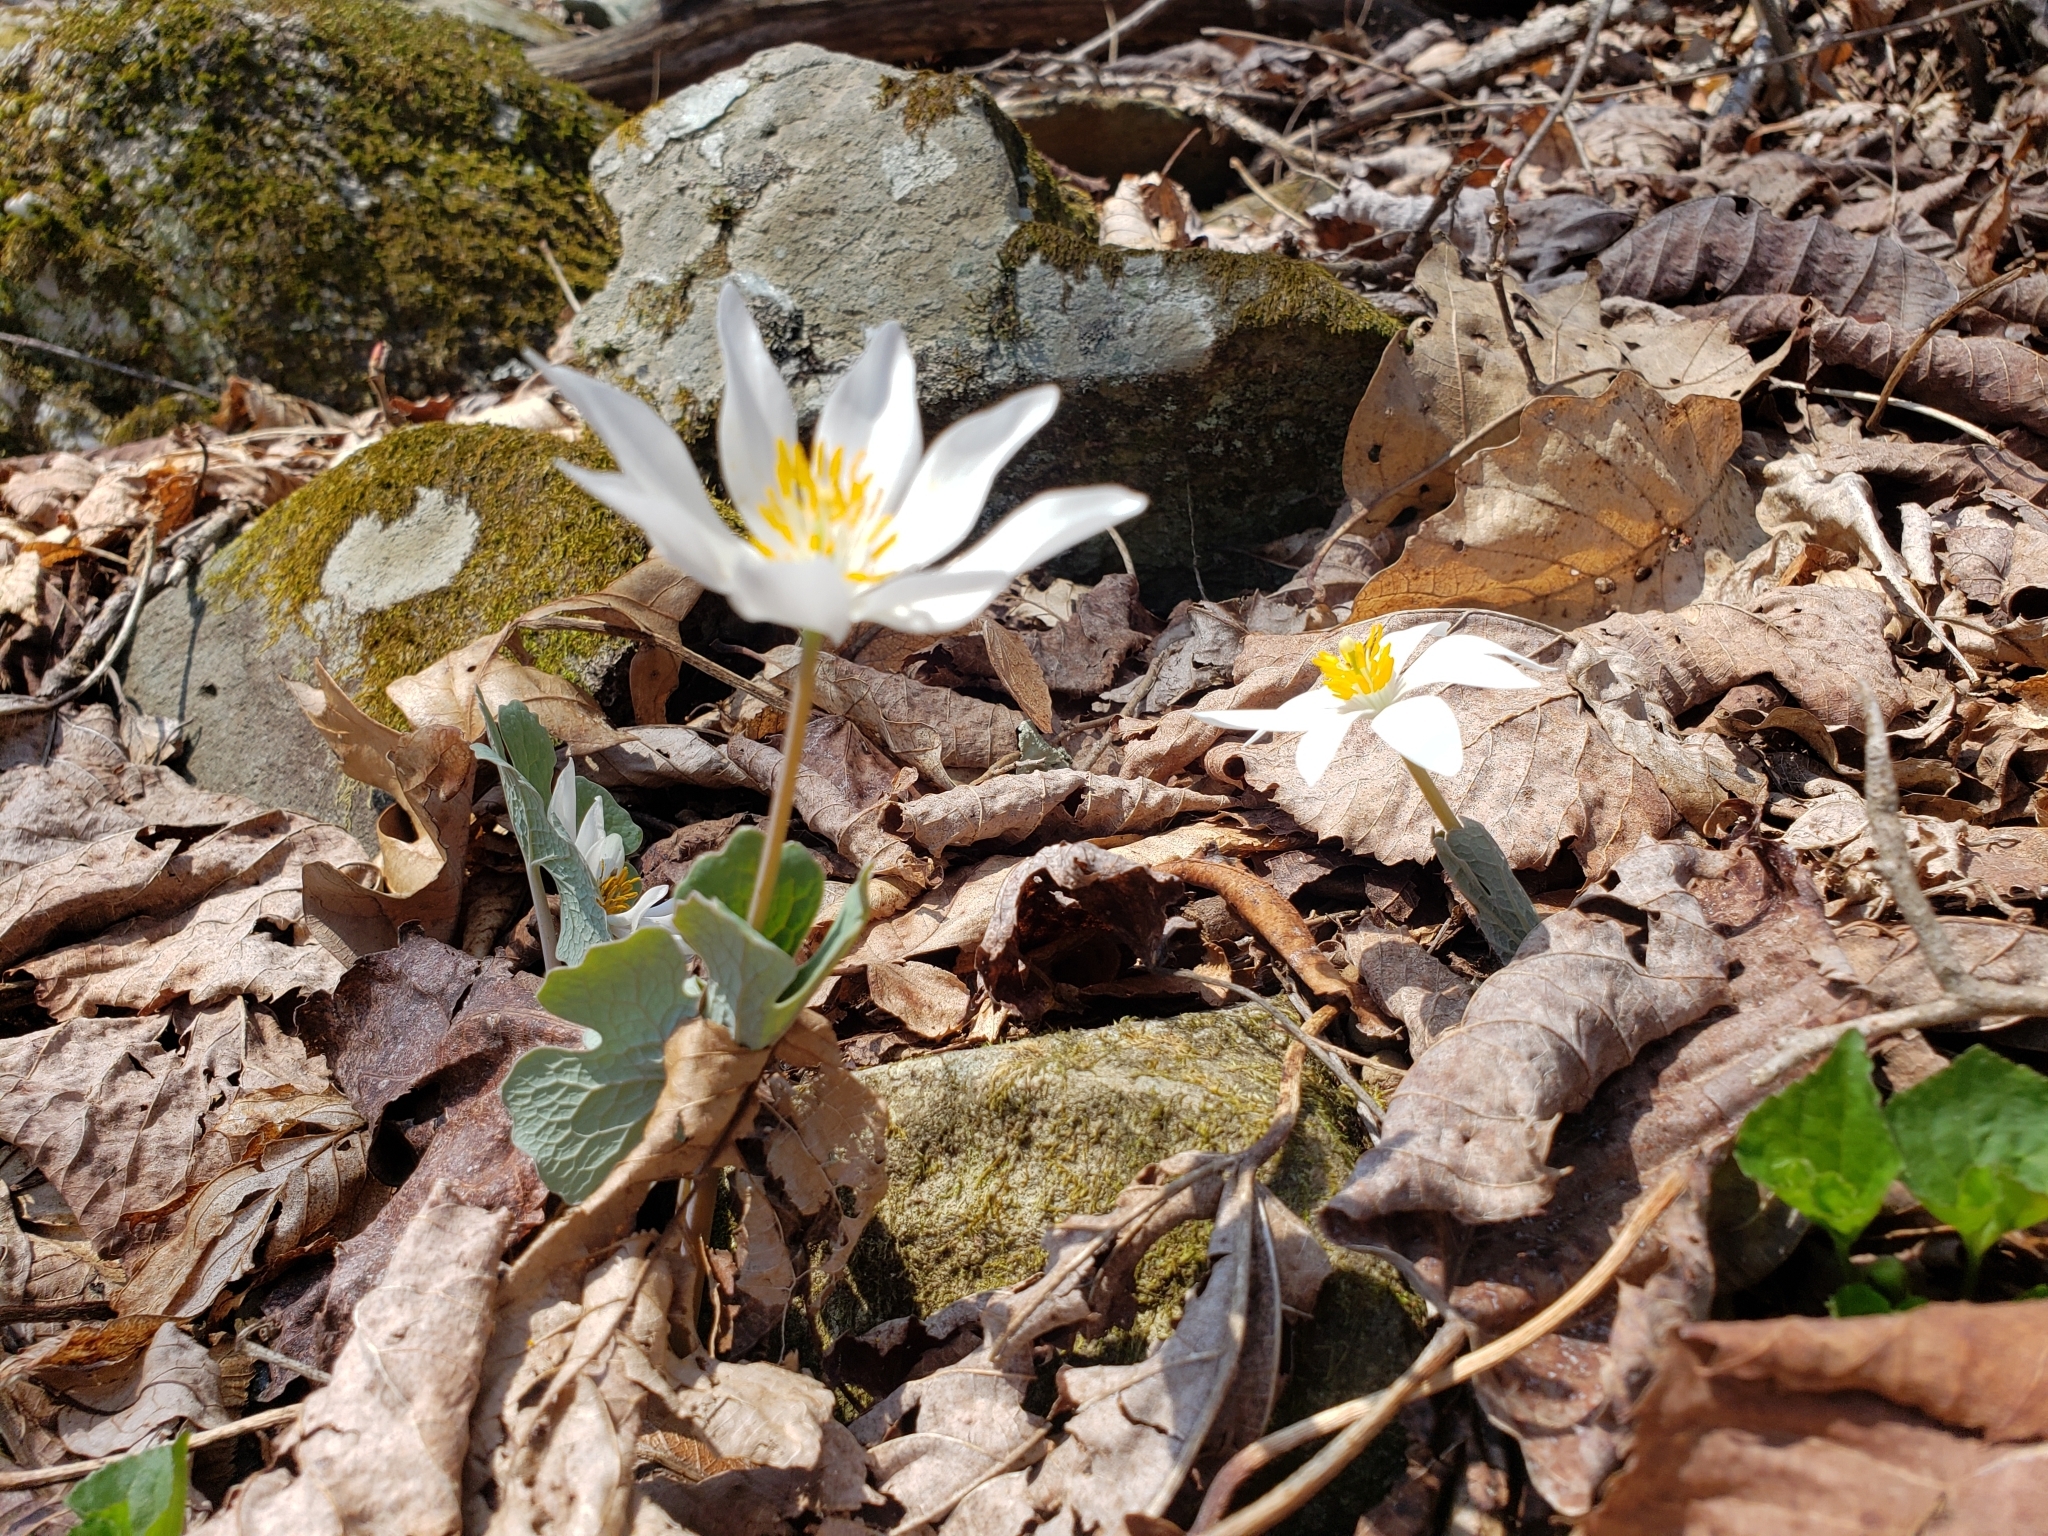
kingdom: Plantae
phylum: Tracheophyta
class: Magnoliopsida
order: Ranunculales
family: Papaveraceae
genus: Sanguinaria
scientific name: Sanguinaria canadensis
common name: Bloodroot
